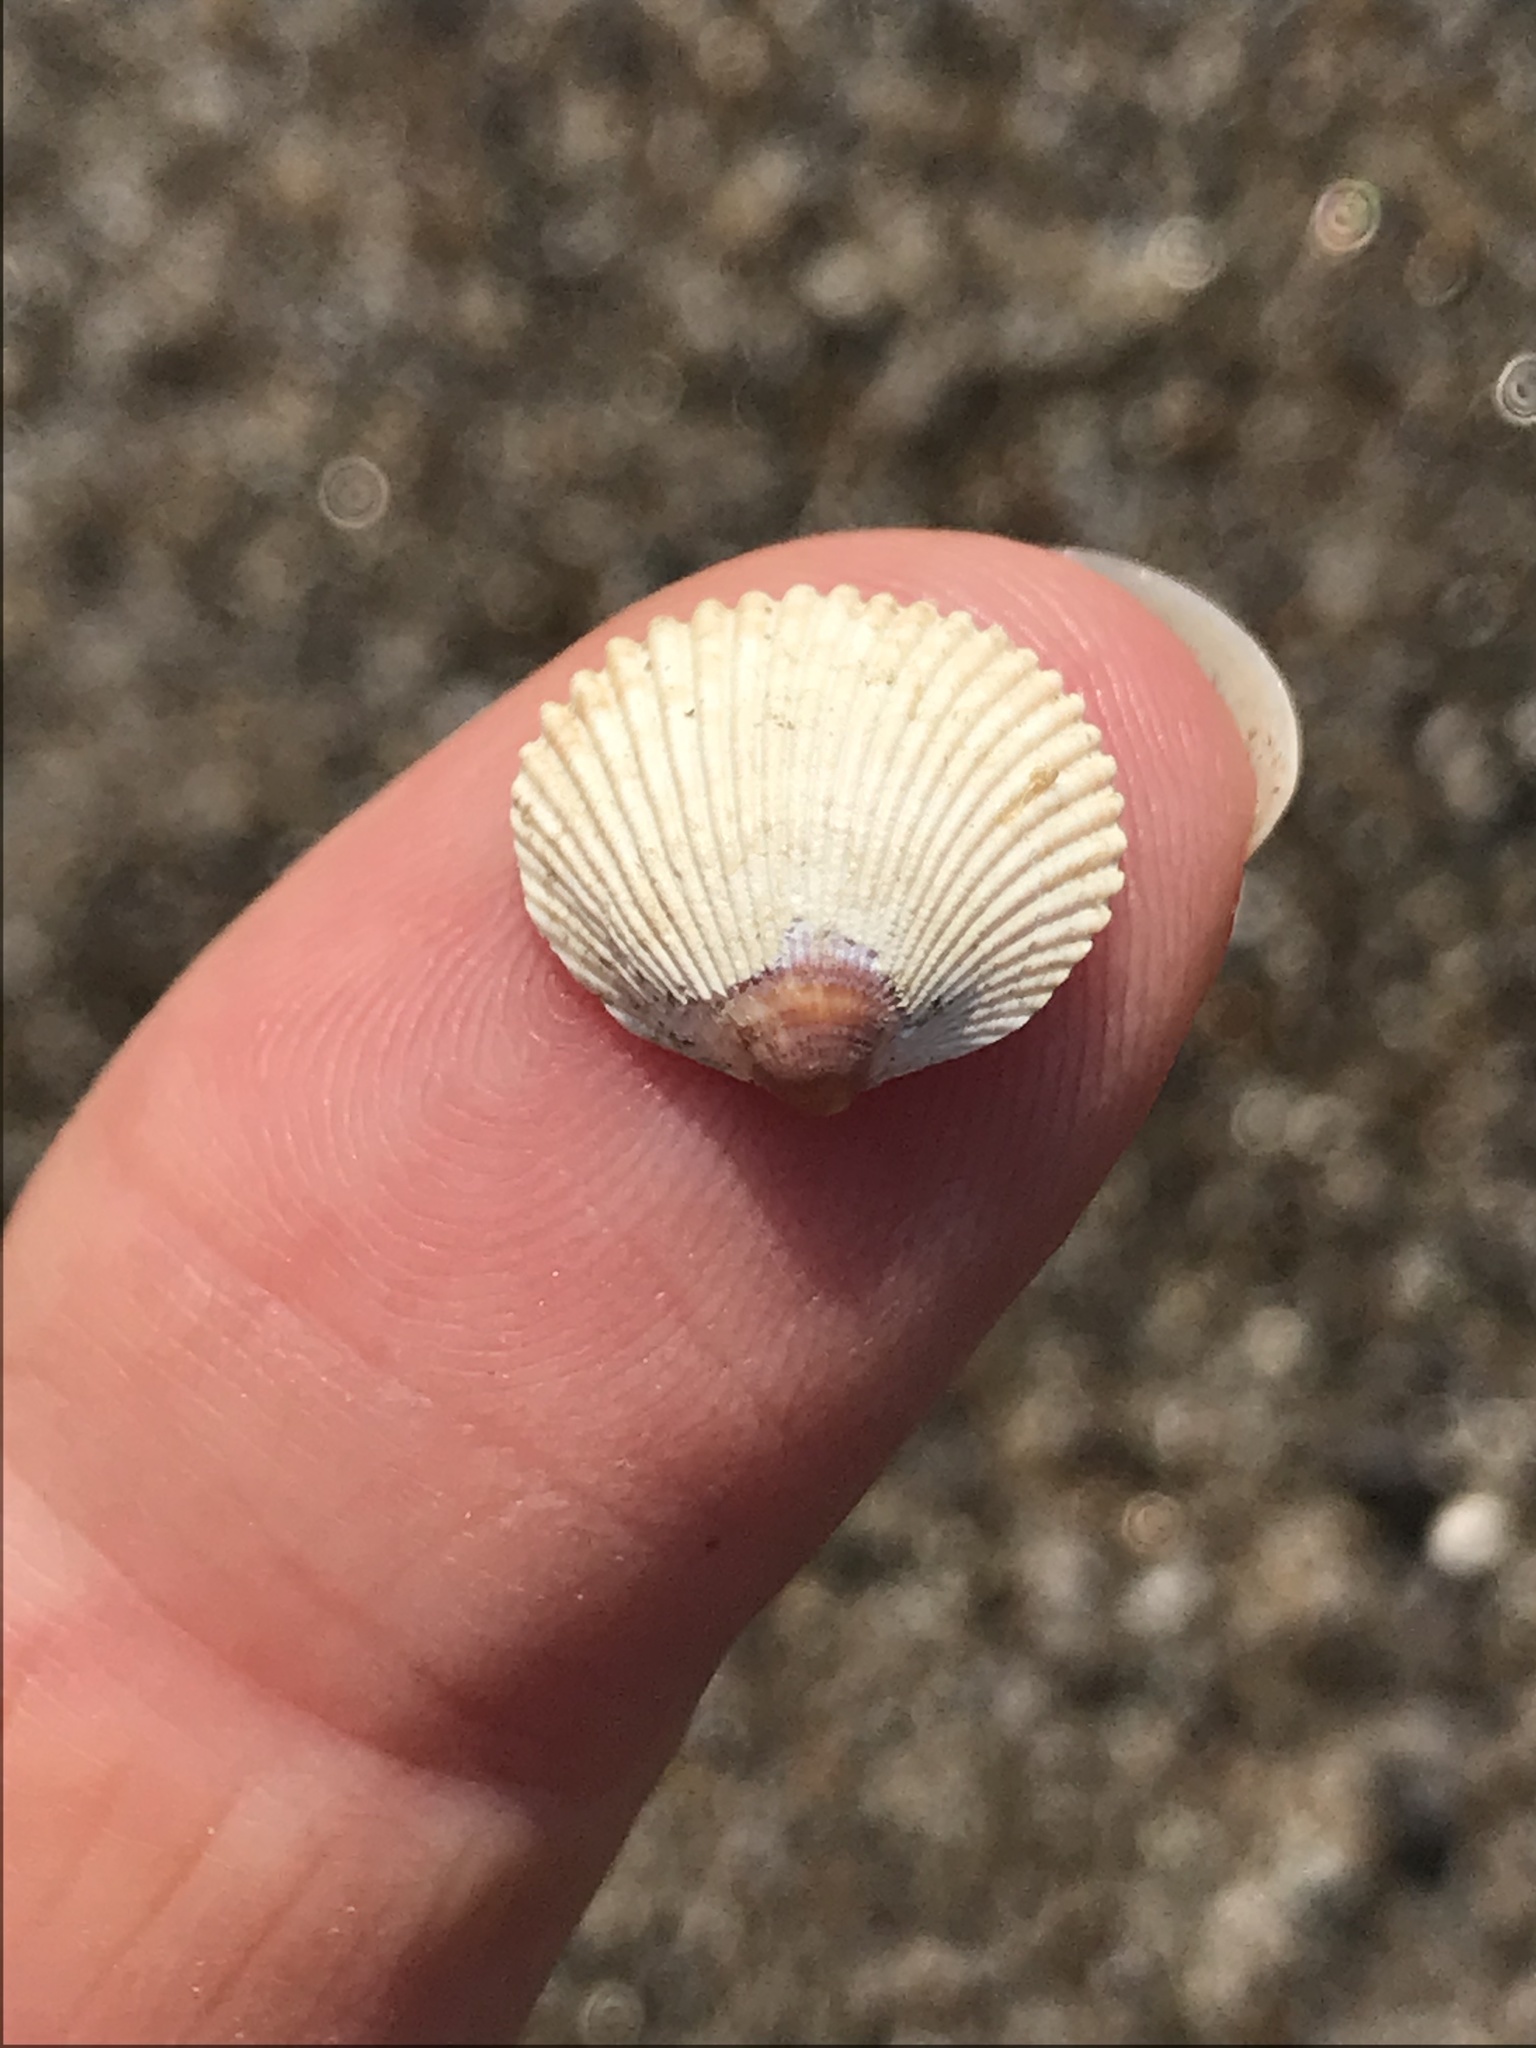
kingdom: Animalia
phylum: Mollusca
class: Bivalvia
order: Cardiida
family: Cardiidae
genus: Clinocardium
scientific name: Clinocardium nuttallii
